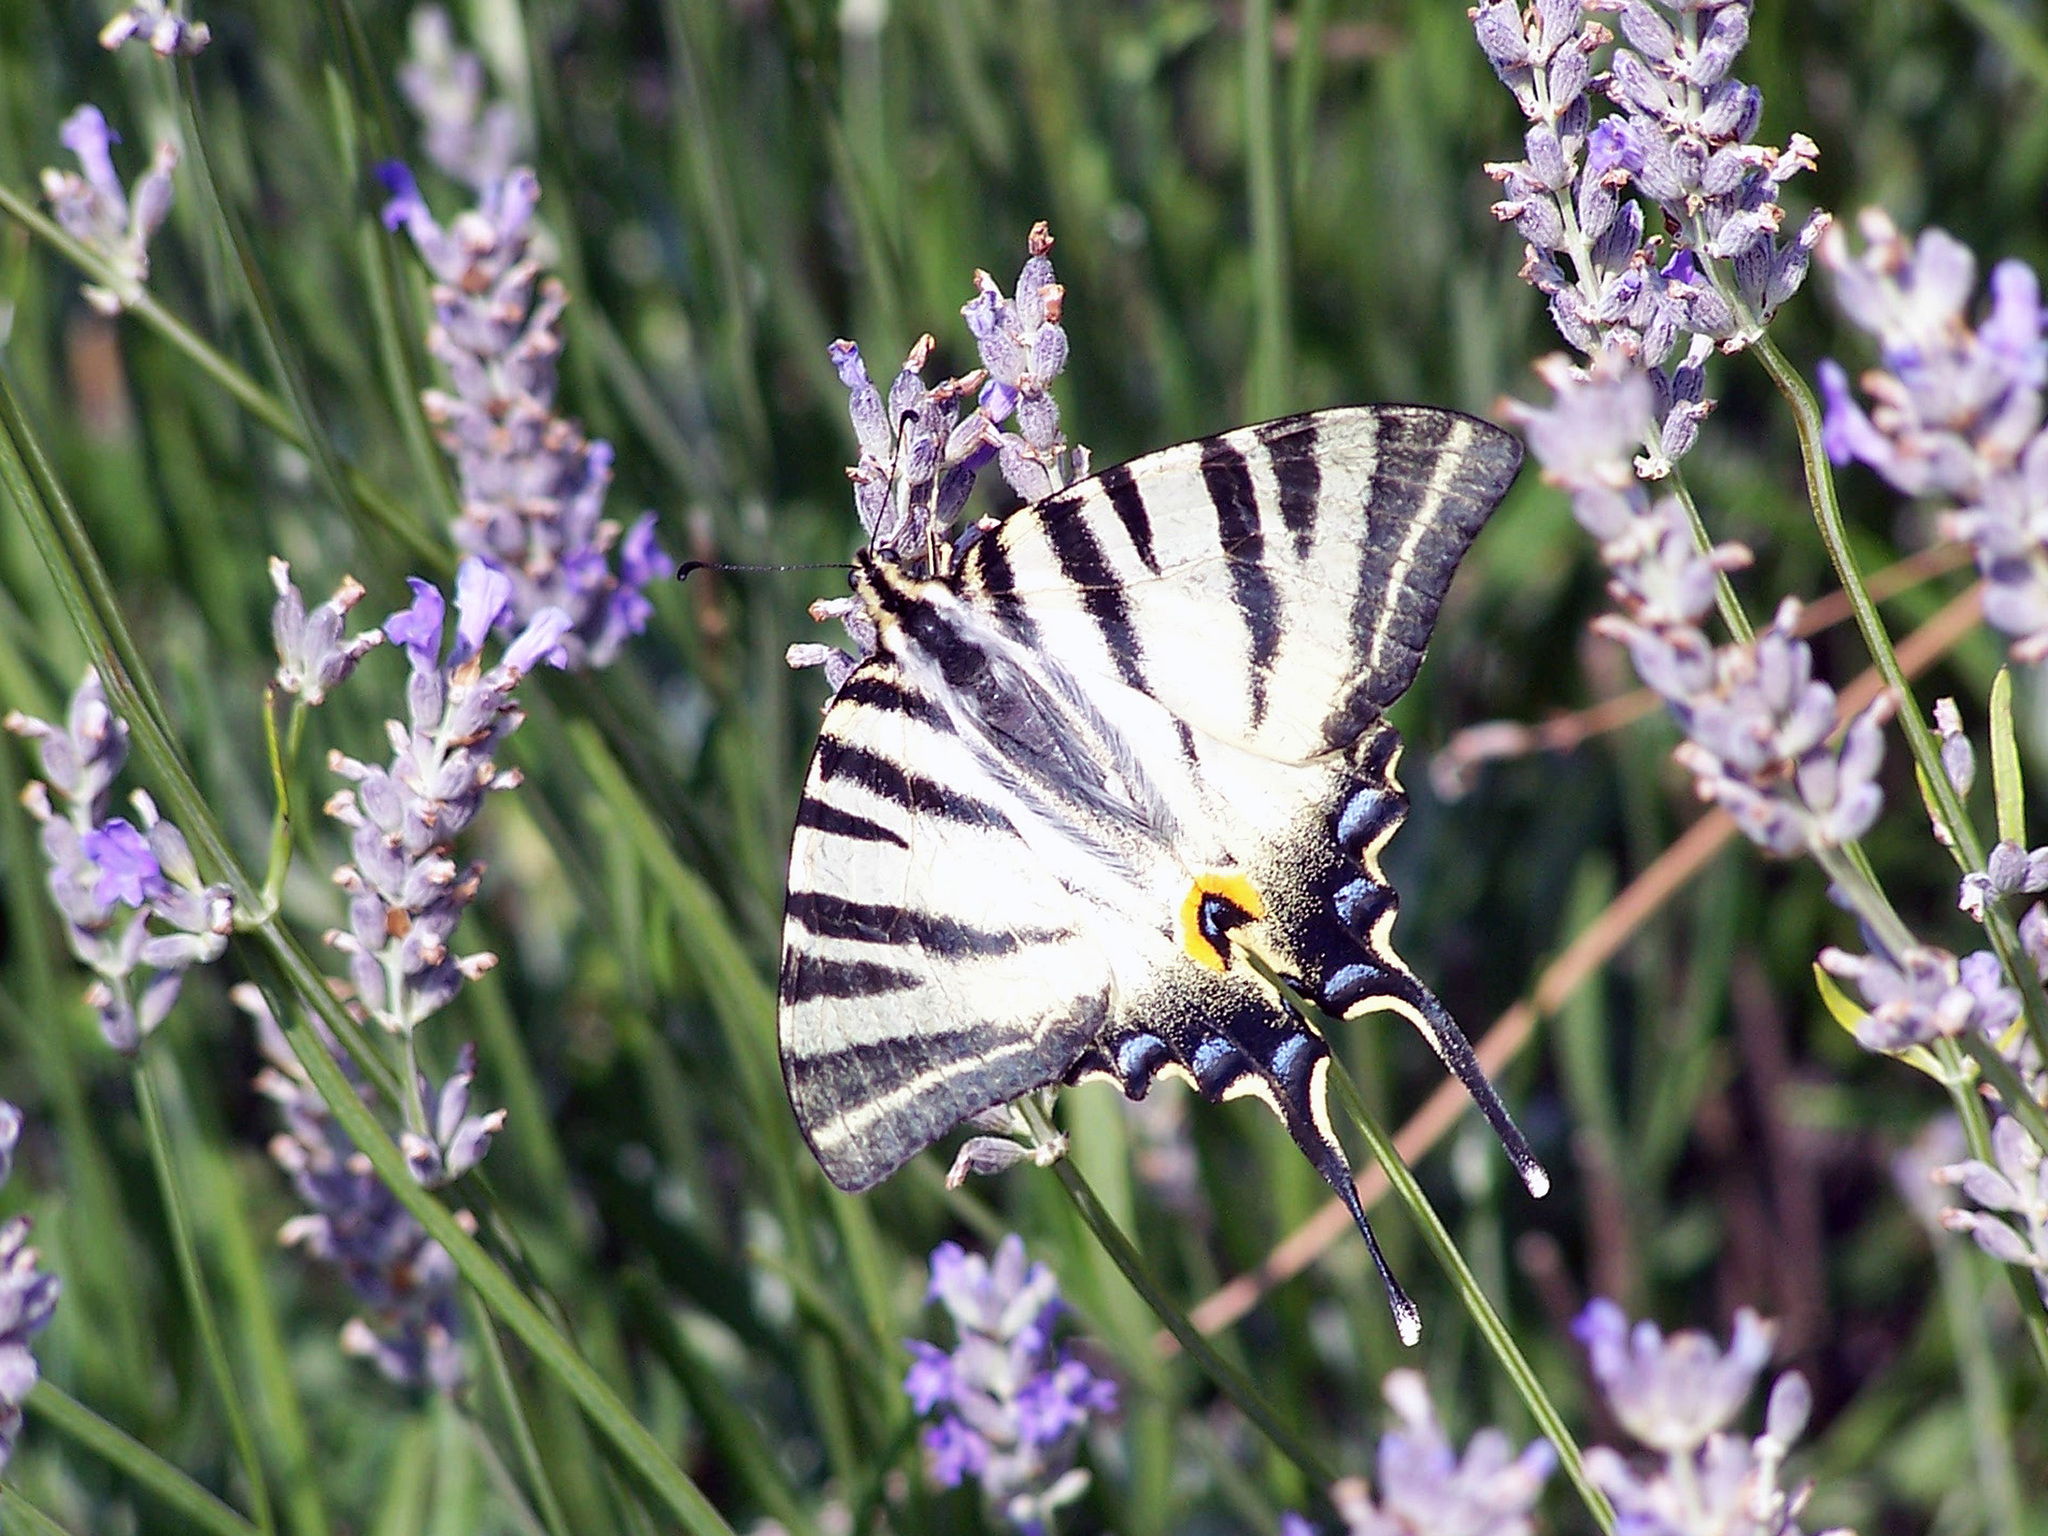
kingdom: Animalia
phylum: Arthropoda
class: Insecta
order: Lepidoptera
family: Papilionidae
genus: Iphiclides
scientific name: Iphiclides podalirius
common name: Scarce swallowtail
